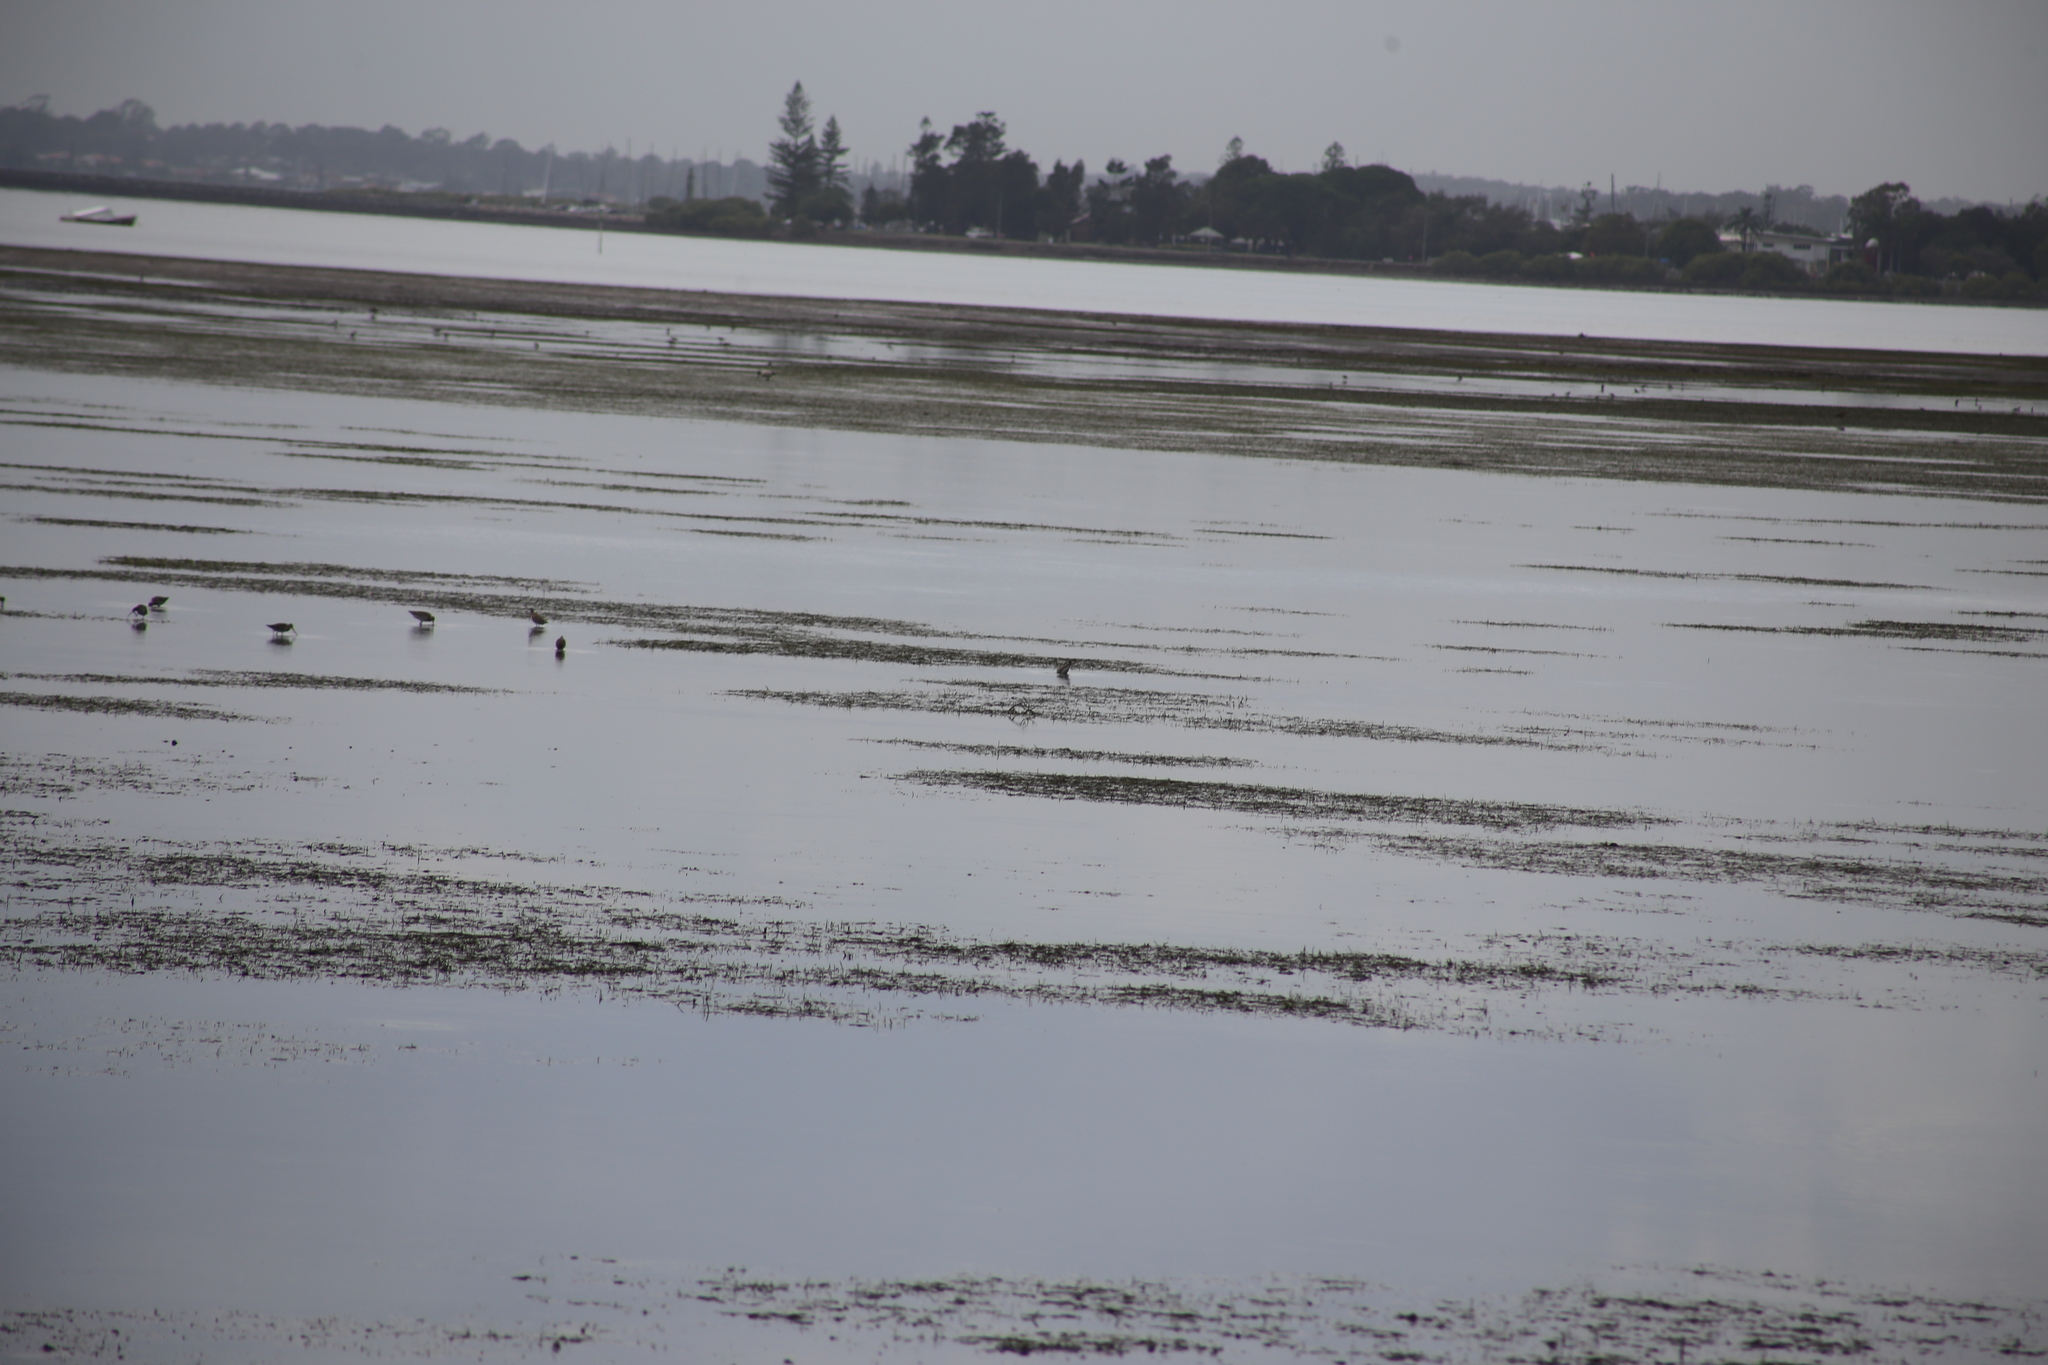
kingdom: Animalia
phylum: Chordata
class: Aves
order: Pelecaniformes
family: Threskiornithidae
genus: Platalea
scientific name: Platalea regia
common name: Royal spoonbill
